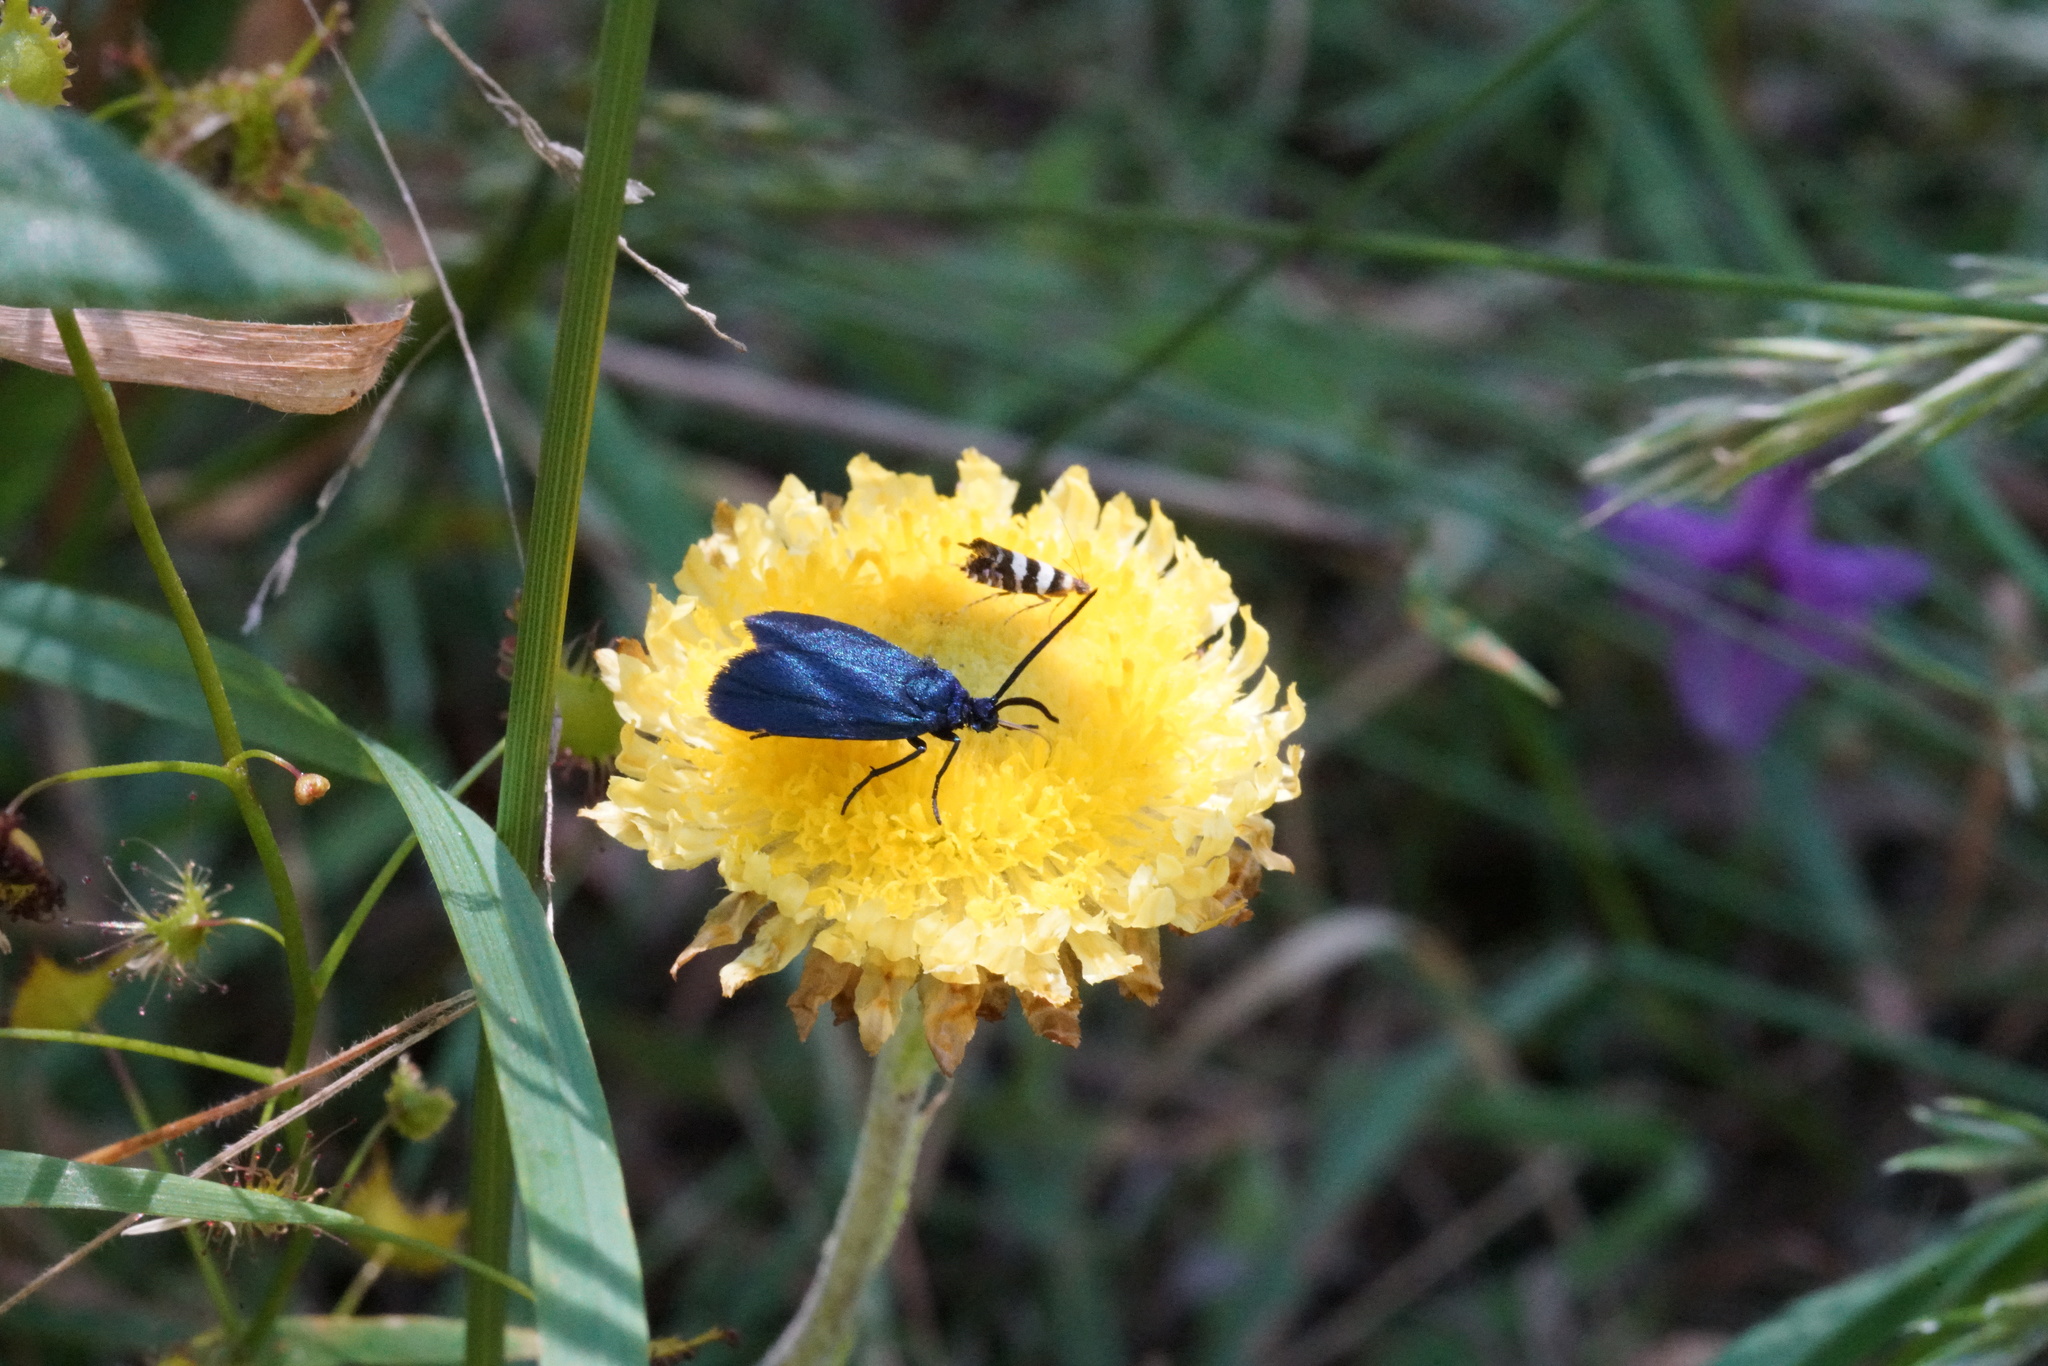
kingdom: Animalia
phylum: Arthropoda
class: Insecta
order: Lepidoptera
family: Zygaenidae
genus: Turneriprocris
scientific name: Turneriprocris dolens
